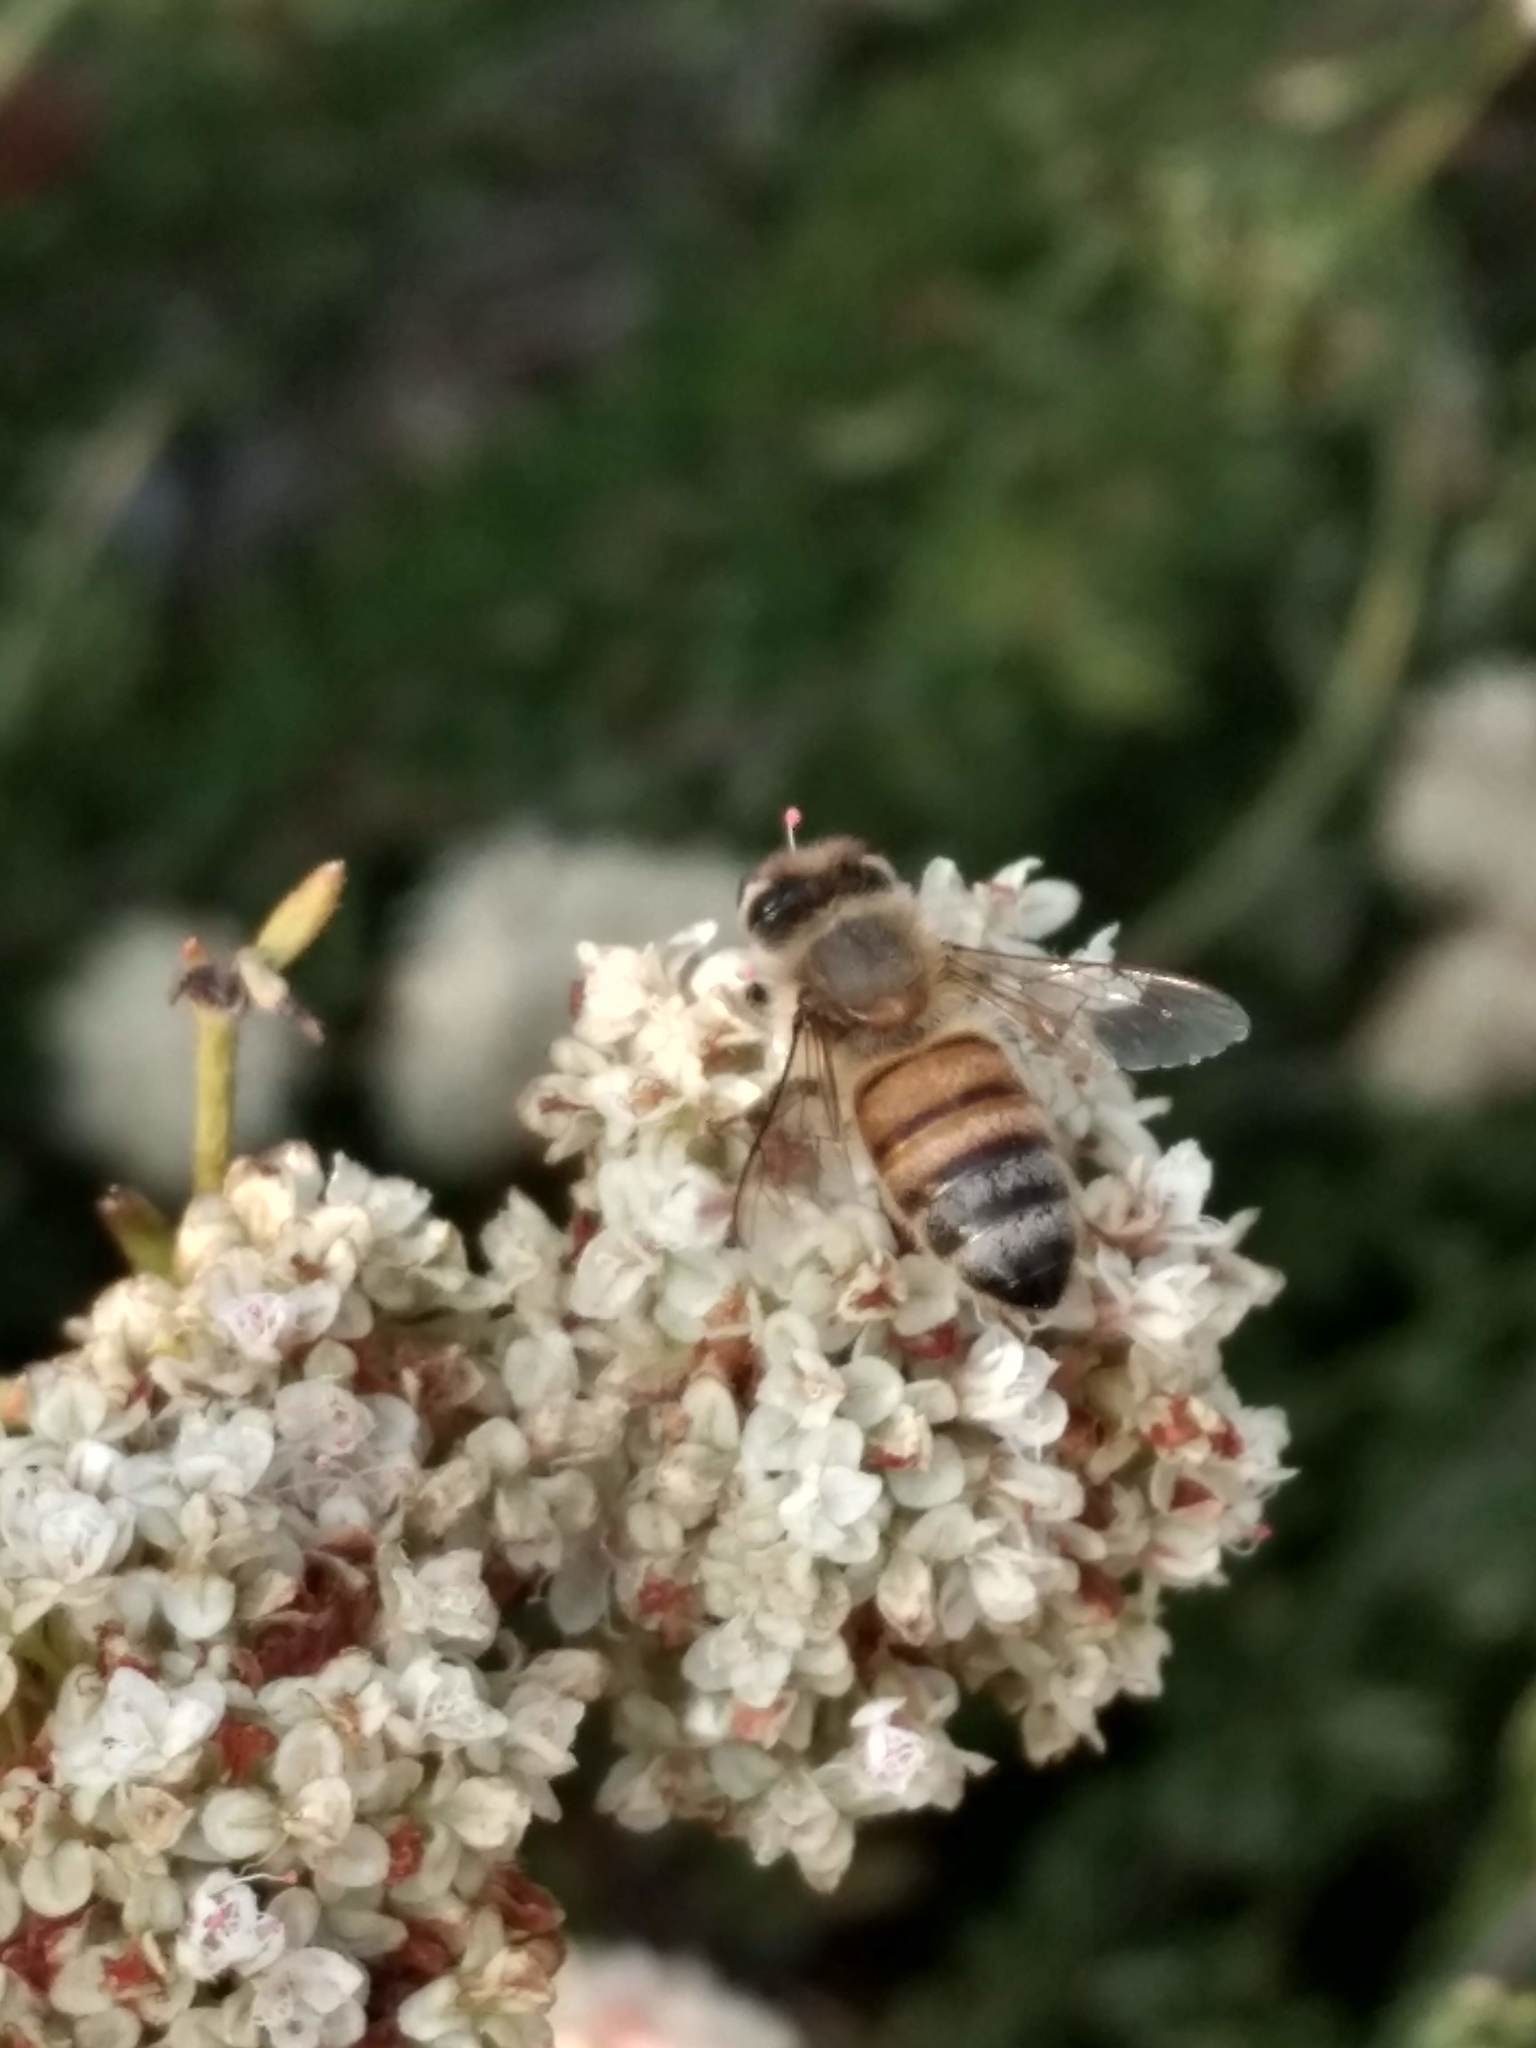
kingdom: Animalia
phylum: Arthropoda
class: Insecta
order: Hymenoptera
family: Apidae
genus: Apis
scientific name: Apis mellifera
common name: Honey bee
